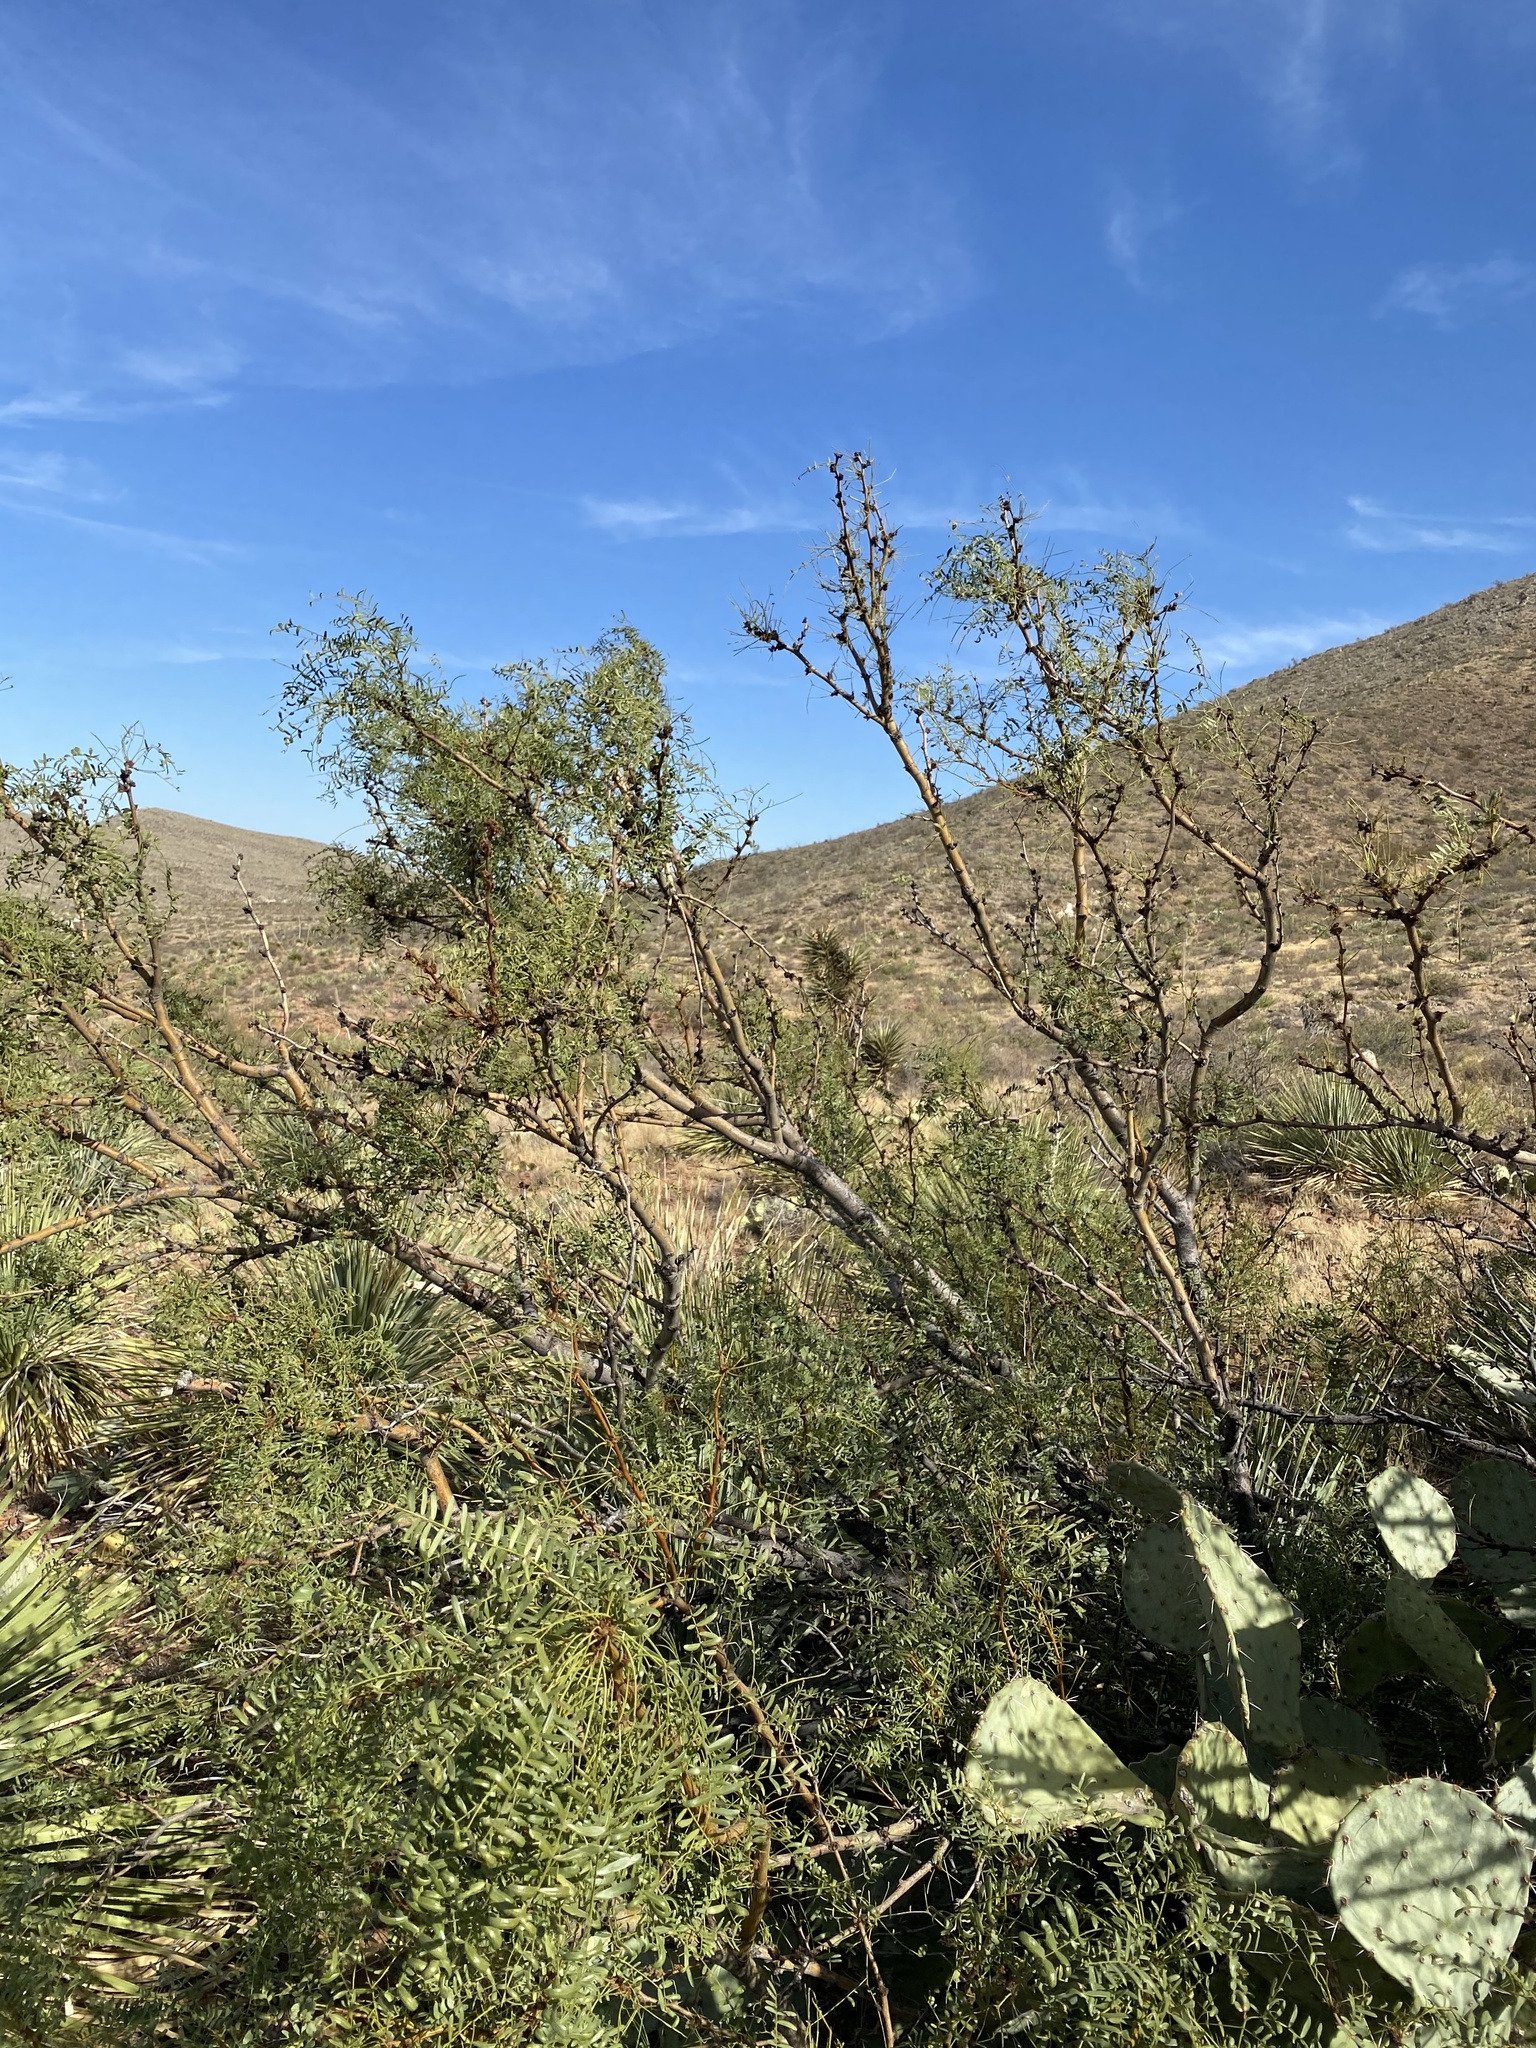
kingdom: Plantae
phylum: Tracheophyta
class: Magnoliopsida
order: Fabales
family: Fabaceae
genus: Prosopis
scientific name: Prosopis glandulosa
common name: Honey mesquite
